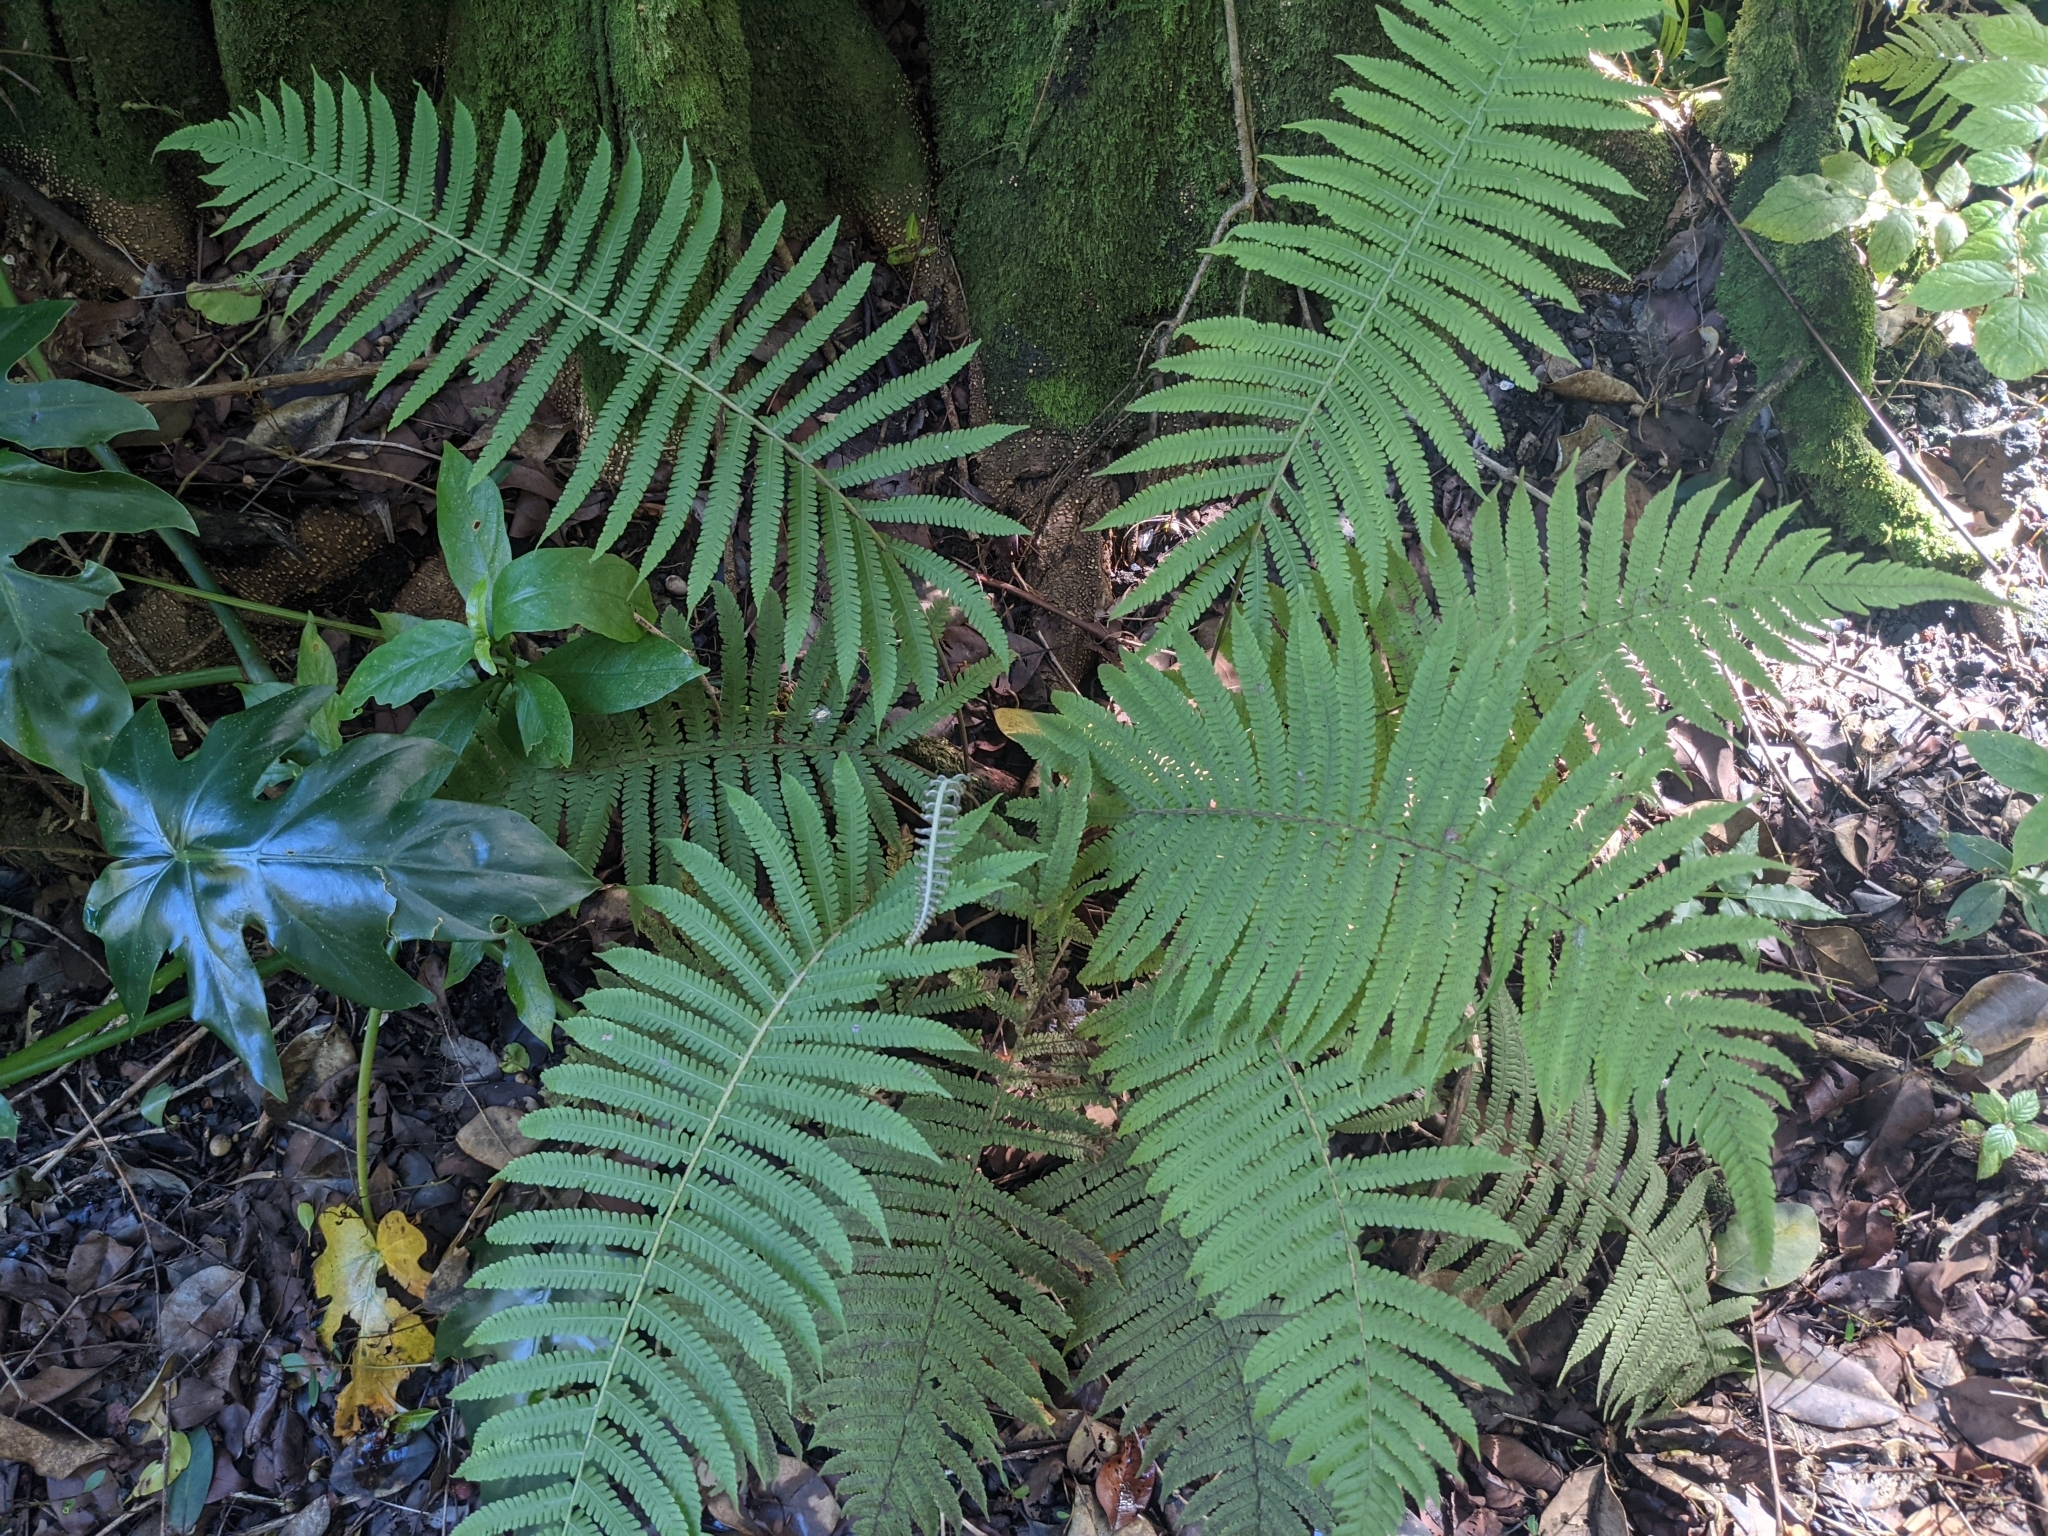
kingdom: Plantae
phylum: Tracheophyta
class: Polypodiopsida
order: Polypodiales
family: Thelypteridaceae
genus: Christella
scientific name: Christella parasitica
